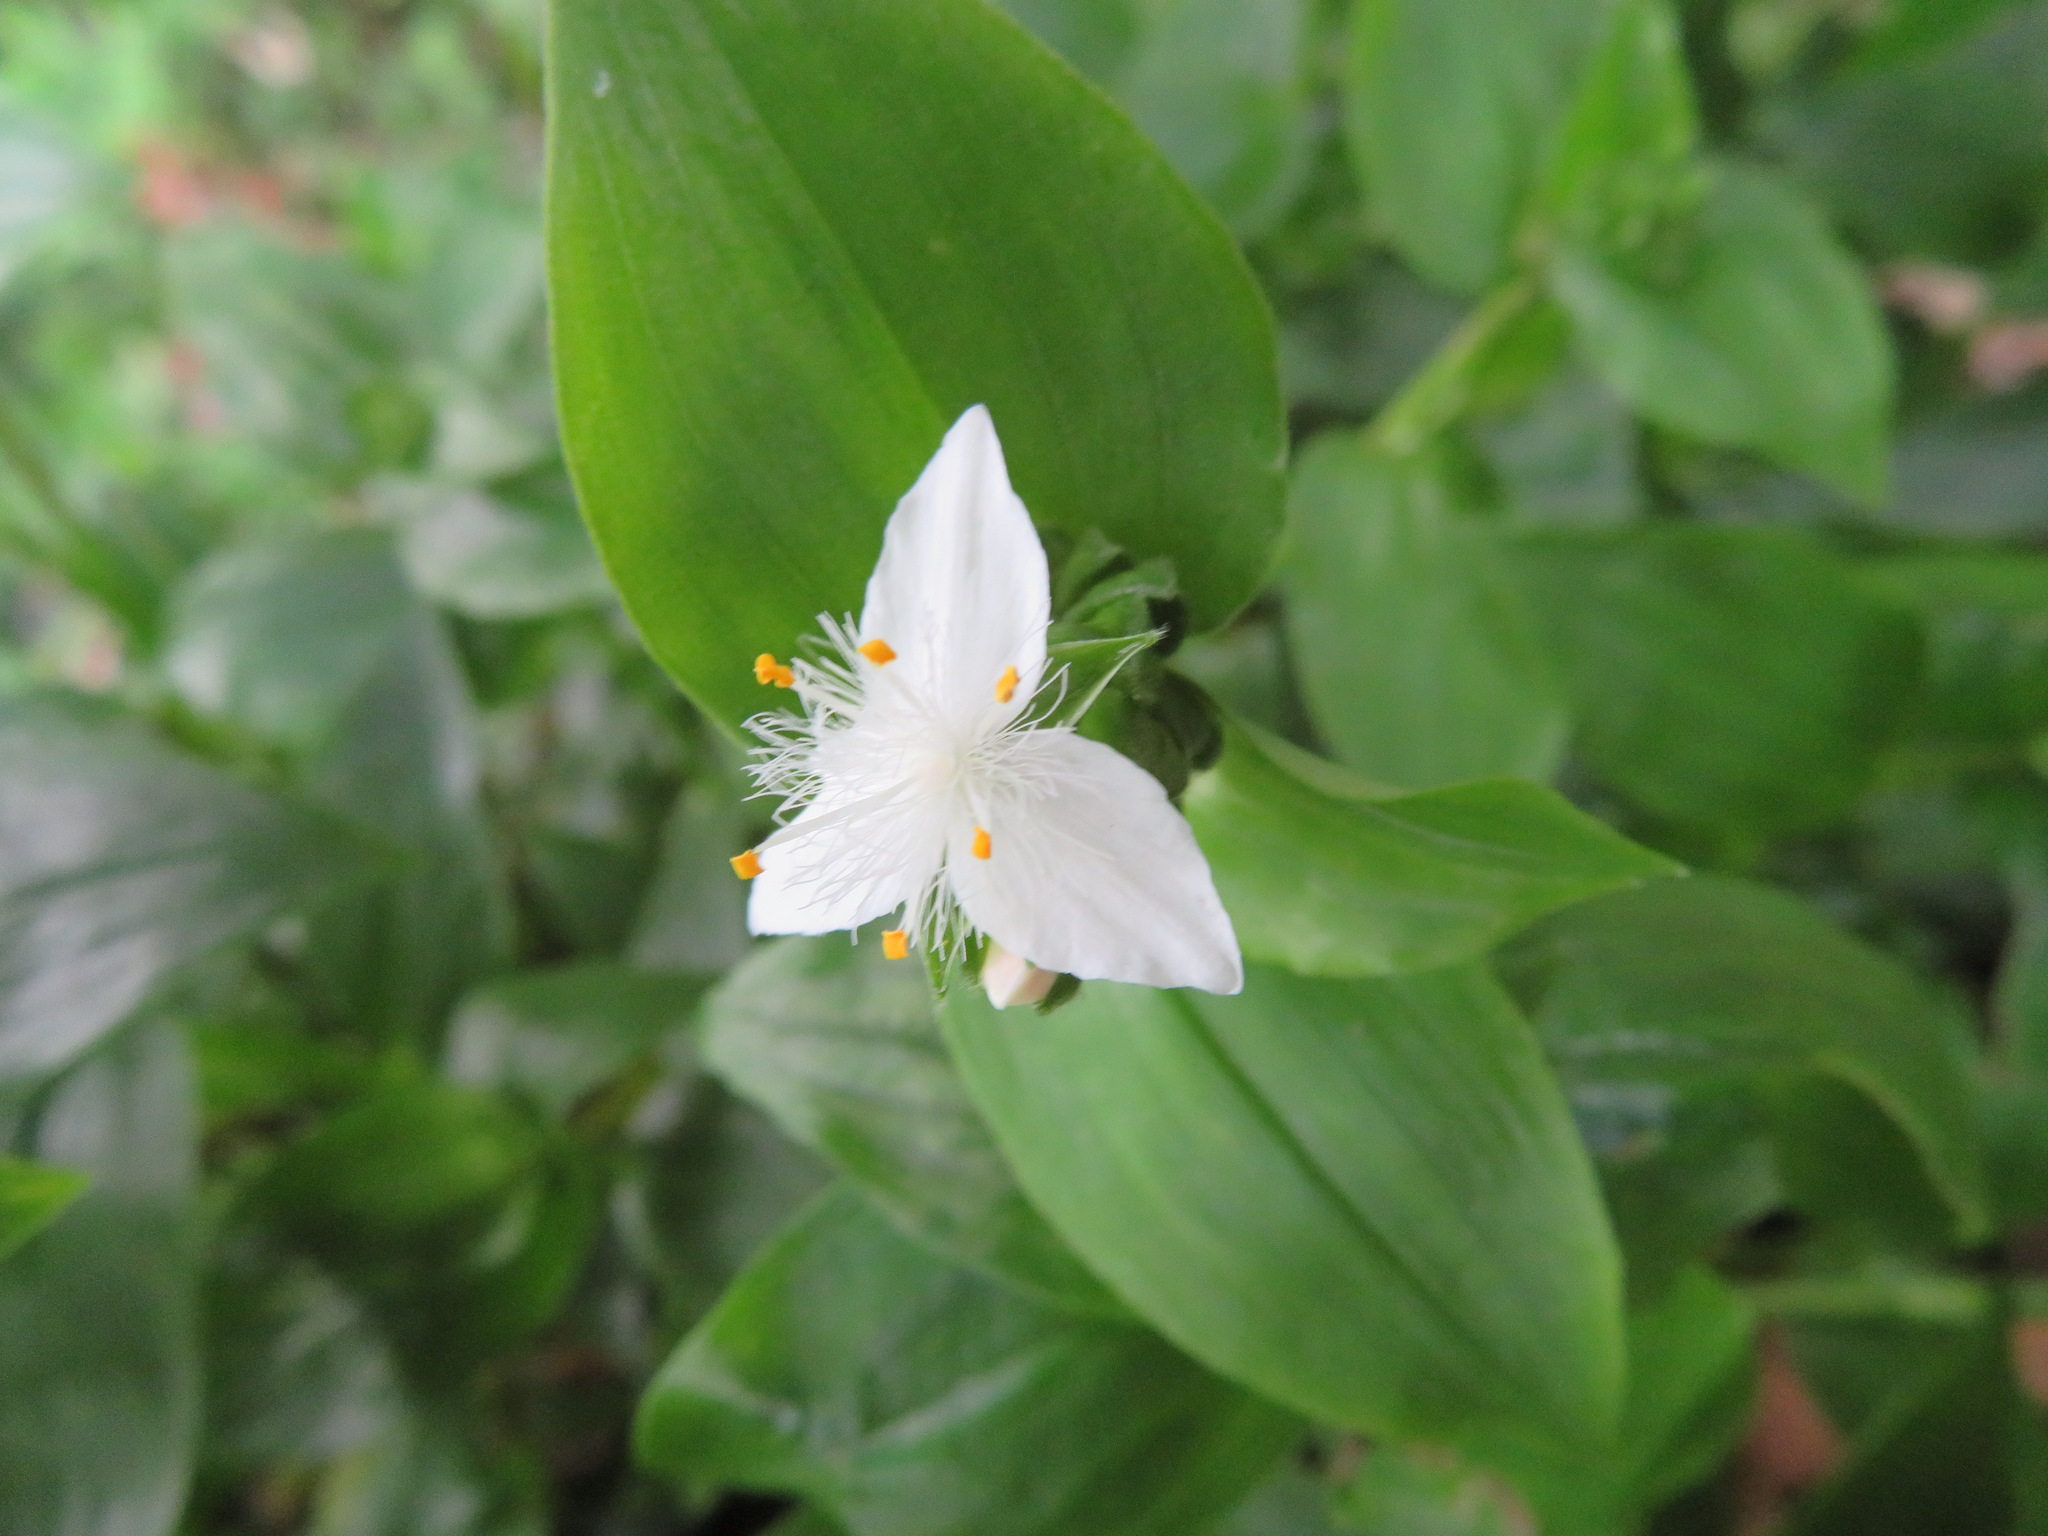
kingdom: Plantae
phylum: Tracheophyta
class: Liliopsida
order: Commelinales
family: Commelinaceae
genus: Tradescantia
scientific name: Tradescantia fluminensis
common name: Wandering-jew
